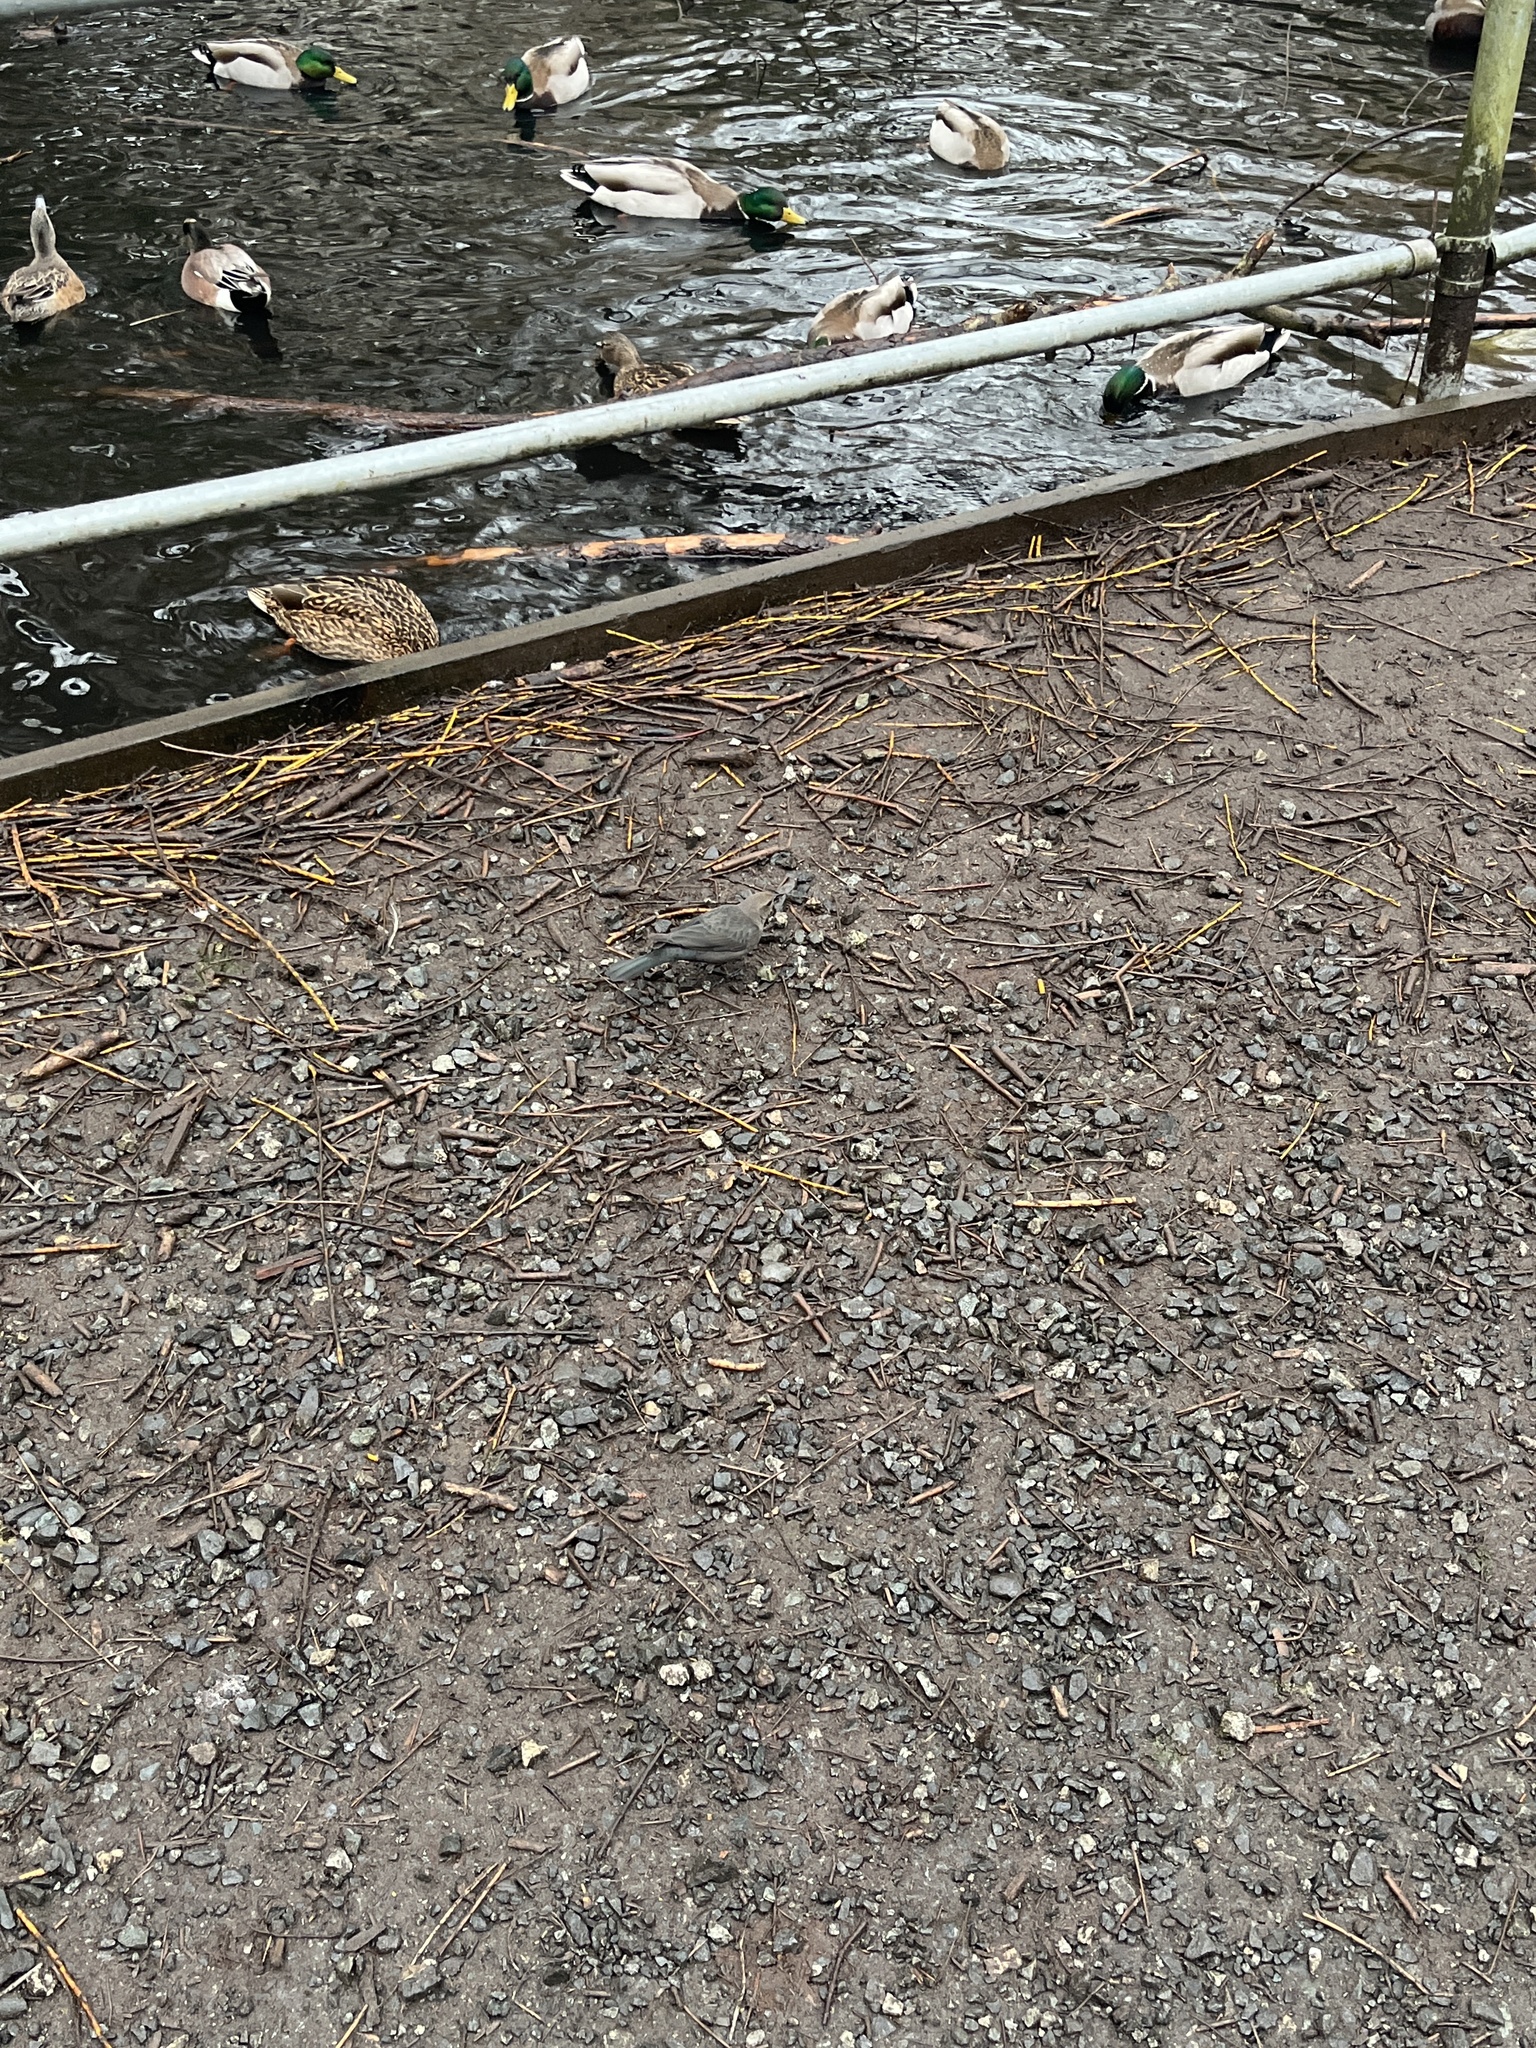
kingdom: Animalia
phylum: Chordata
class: Aves
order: Passeriformes
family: Icteridae
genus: Euphagus
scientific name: Euphagus cyanocephalus
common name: Brewer's blackbird
